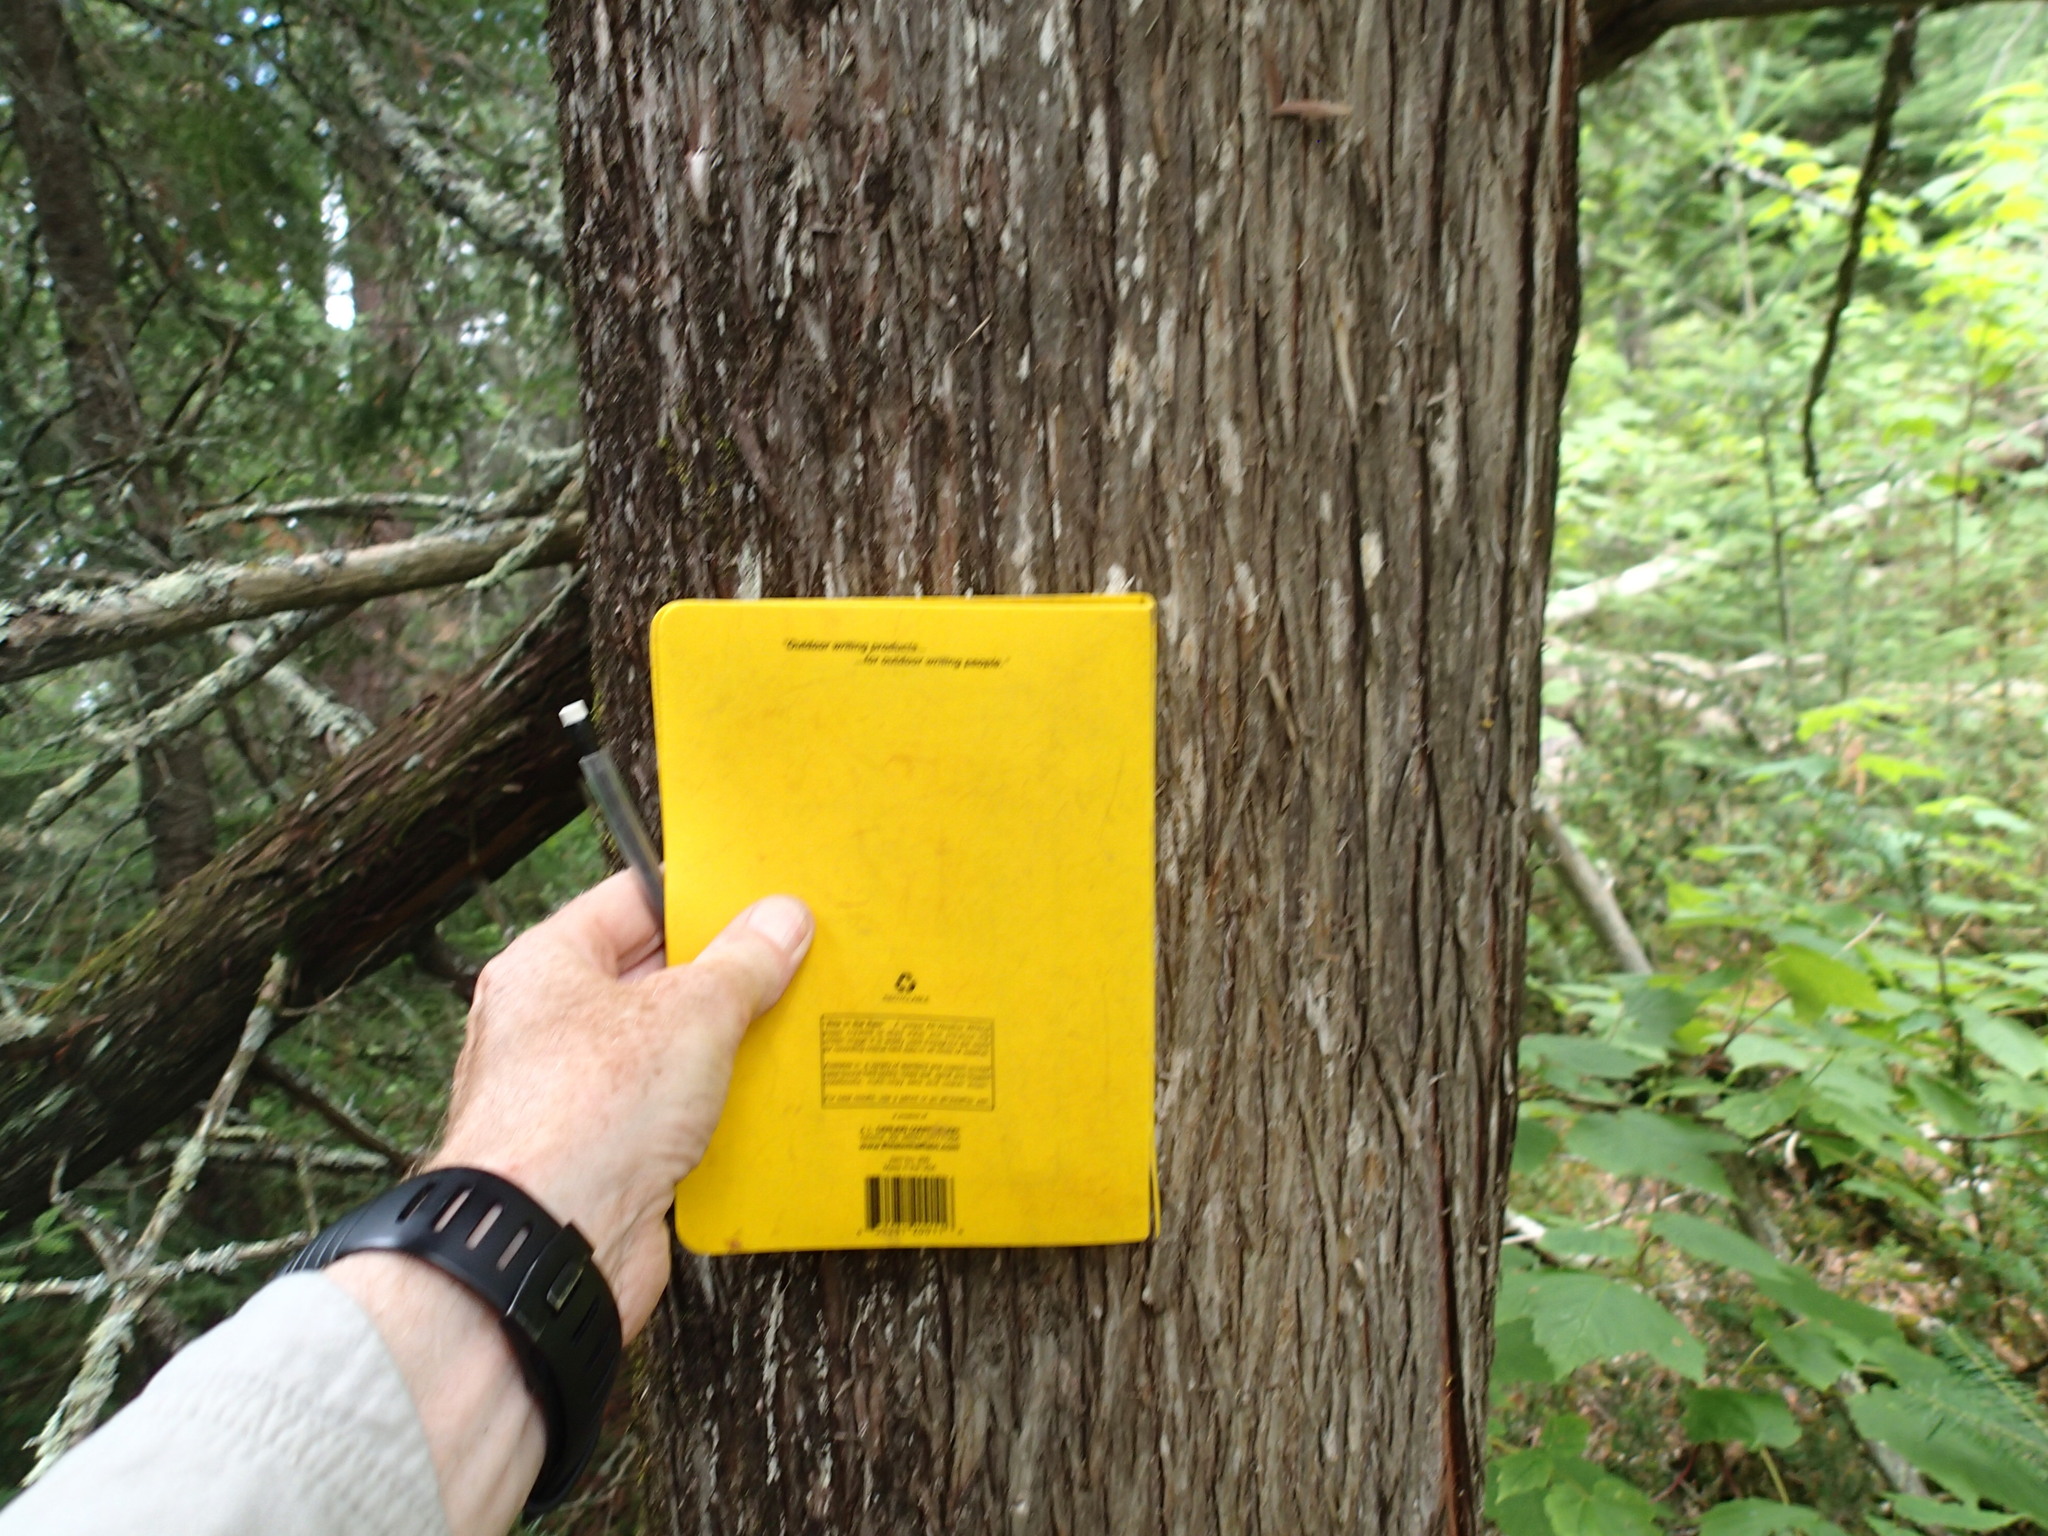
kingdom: Plantae
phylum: Tracheophyta
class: Pinopsida
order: Pinales
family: Cupressaceae
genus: Thuja
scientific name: Thuja occidentalis
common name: Northern white-cedar
